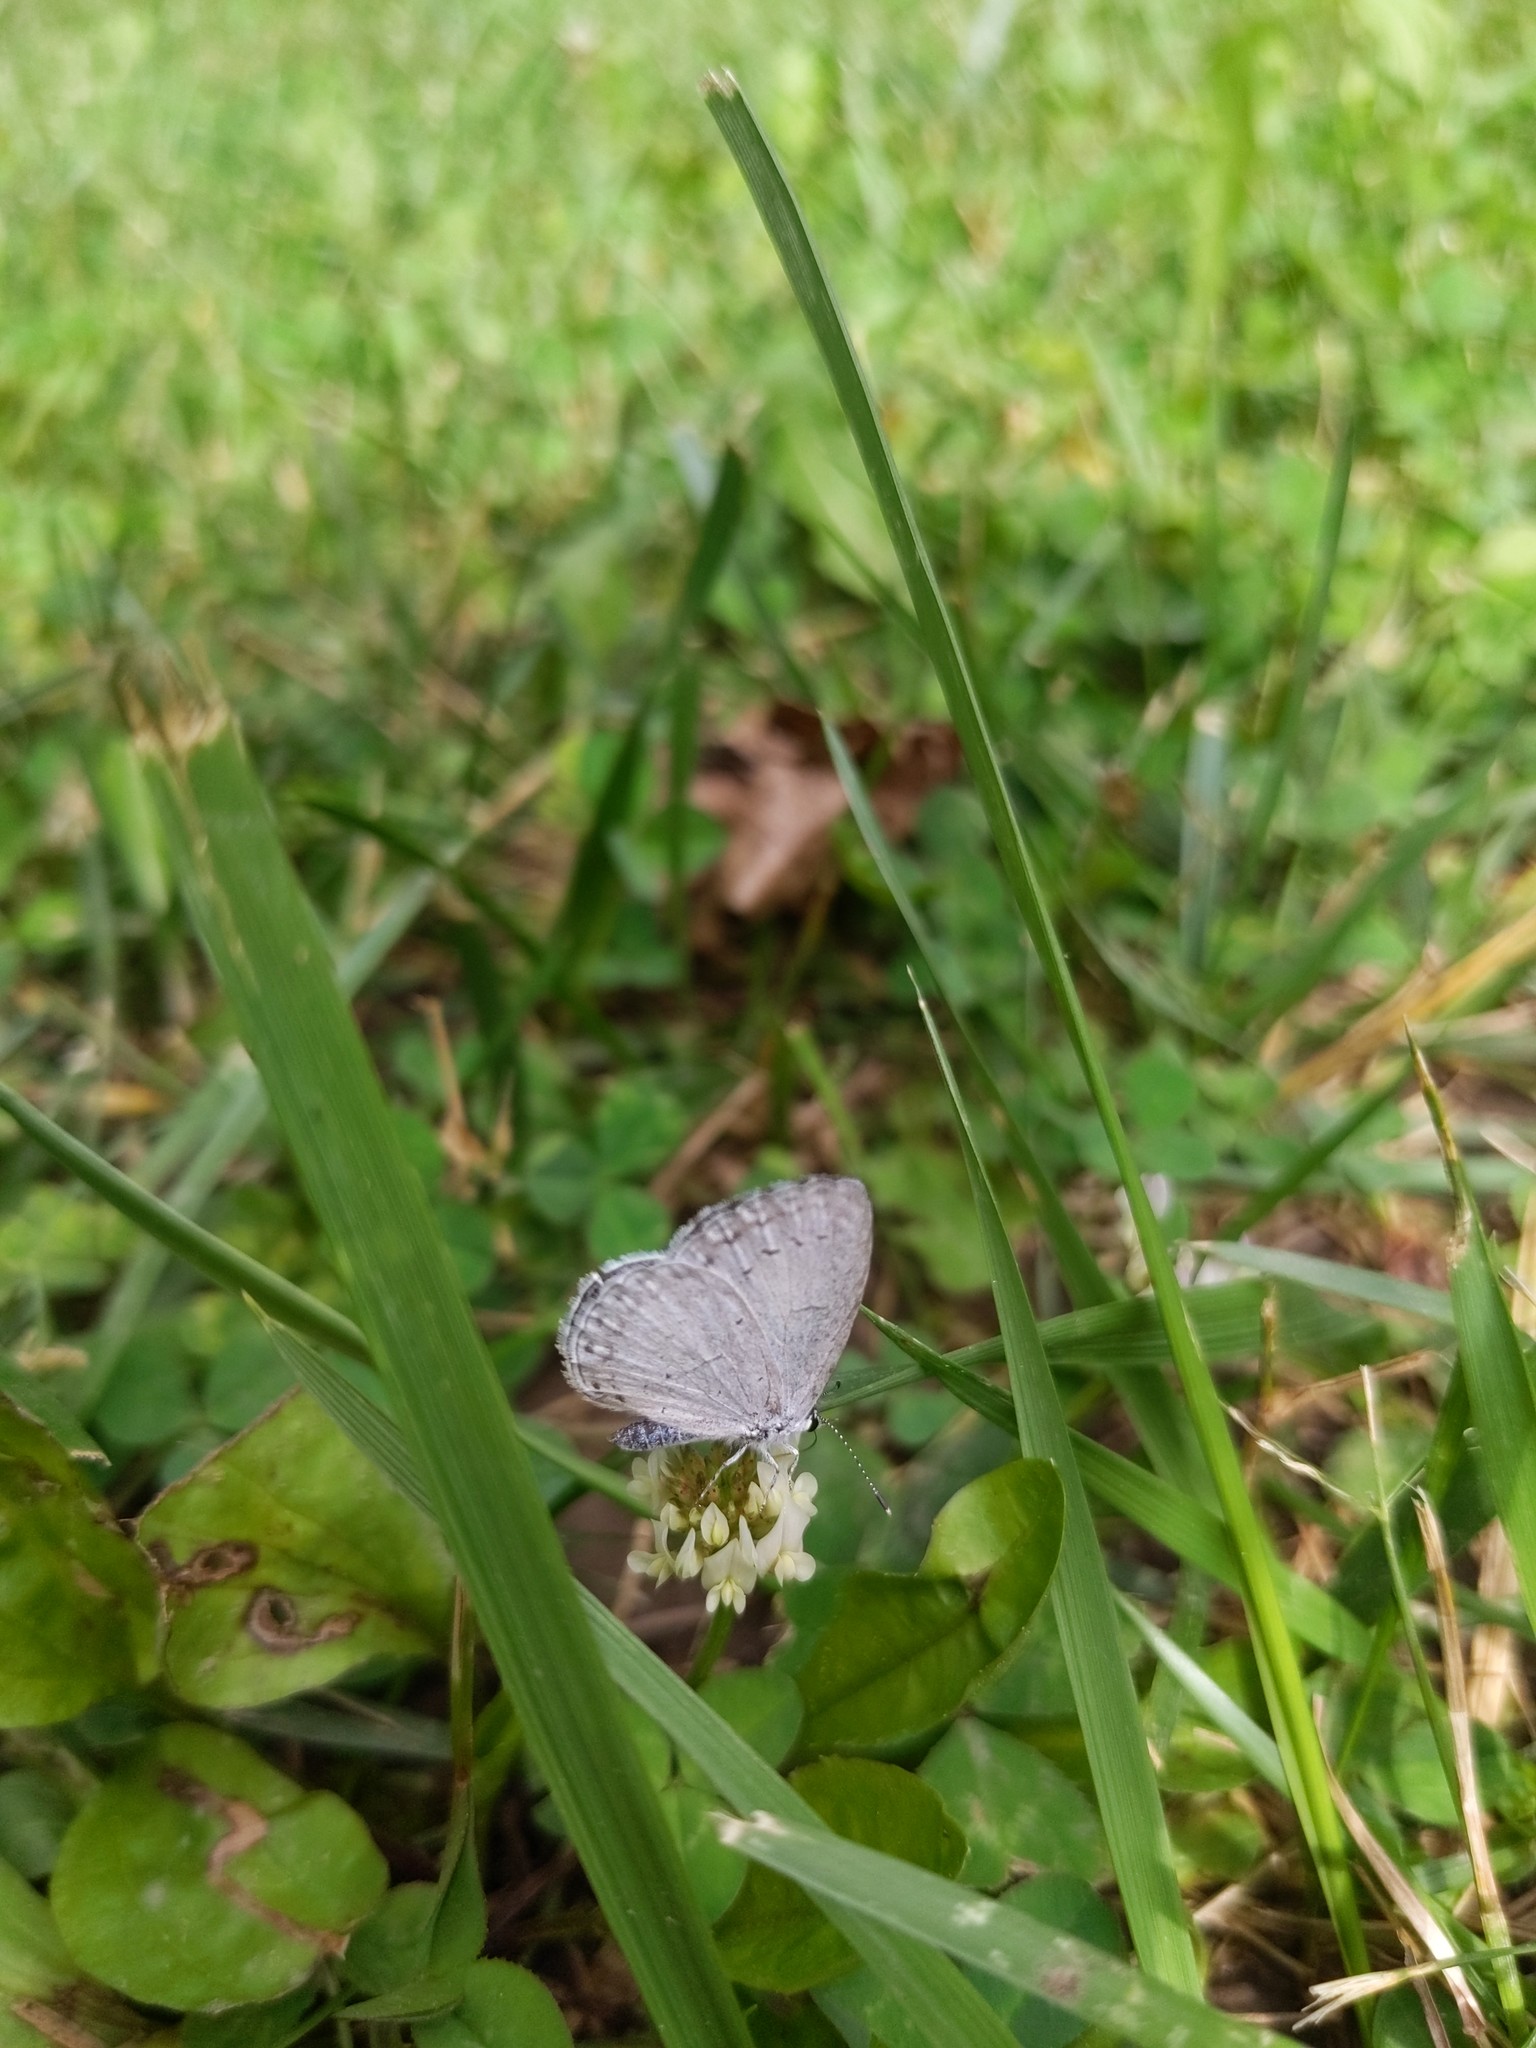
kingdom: Animalia
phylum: Arthropoda
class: Insecta
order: Lepidoptera
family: Lycaenidae
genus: Cyaniris
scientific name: Cyaniris neglecta
